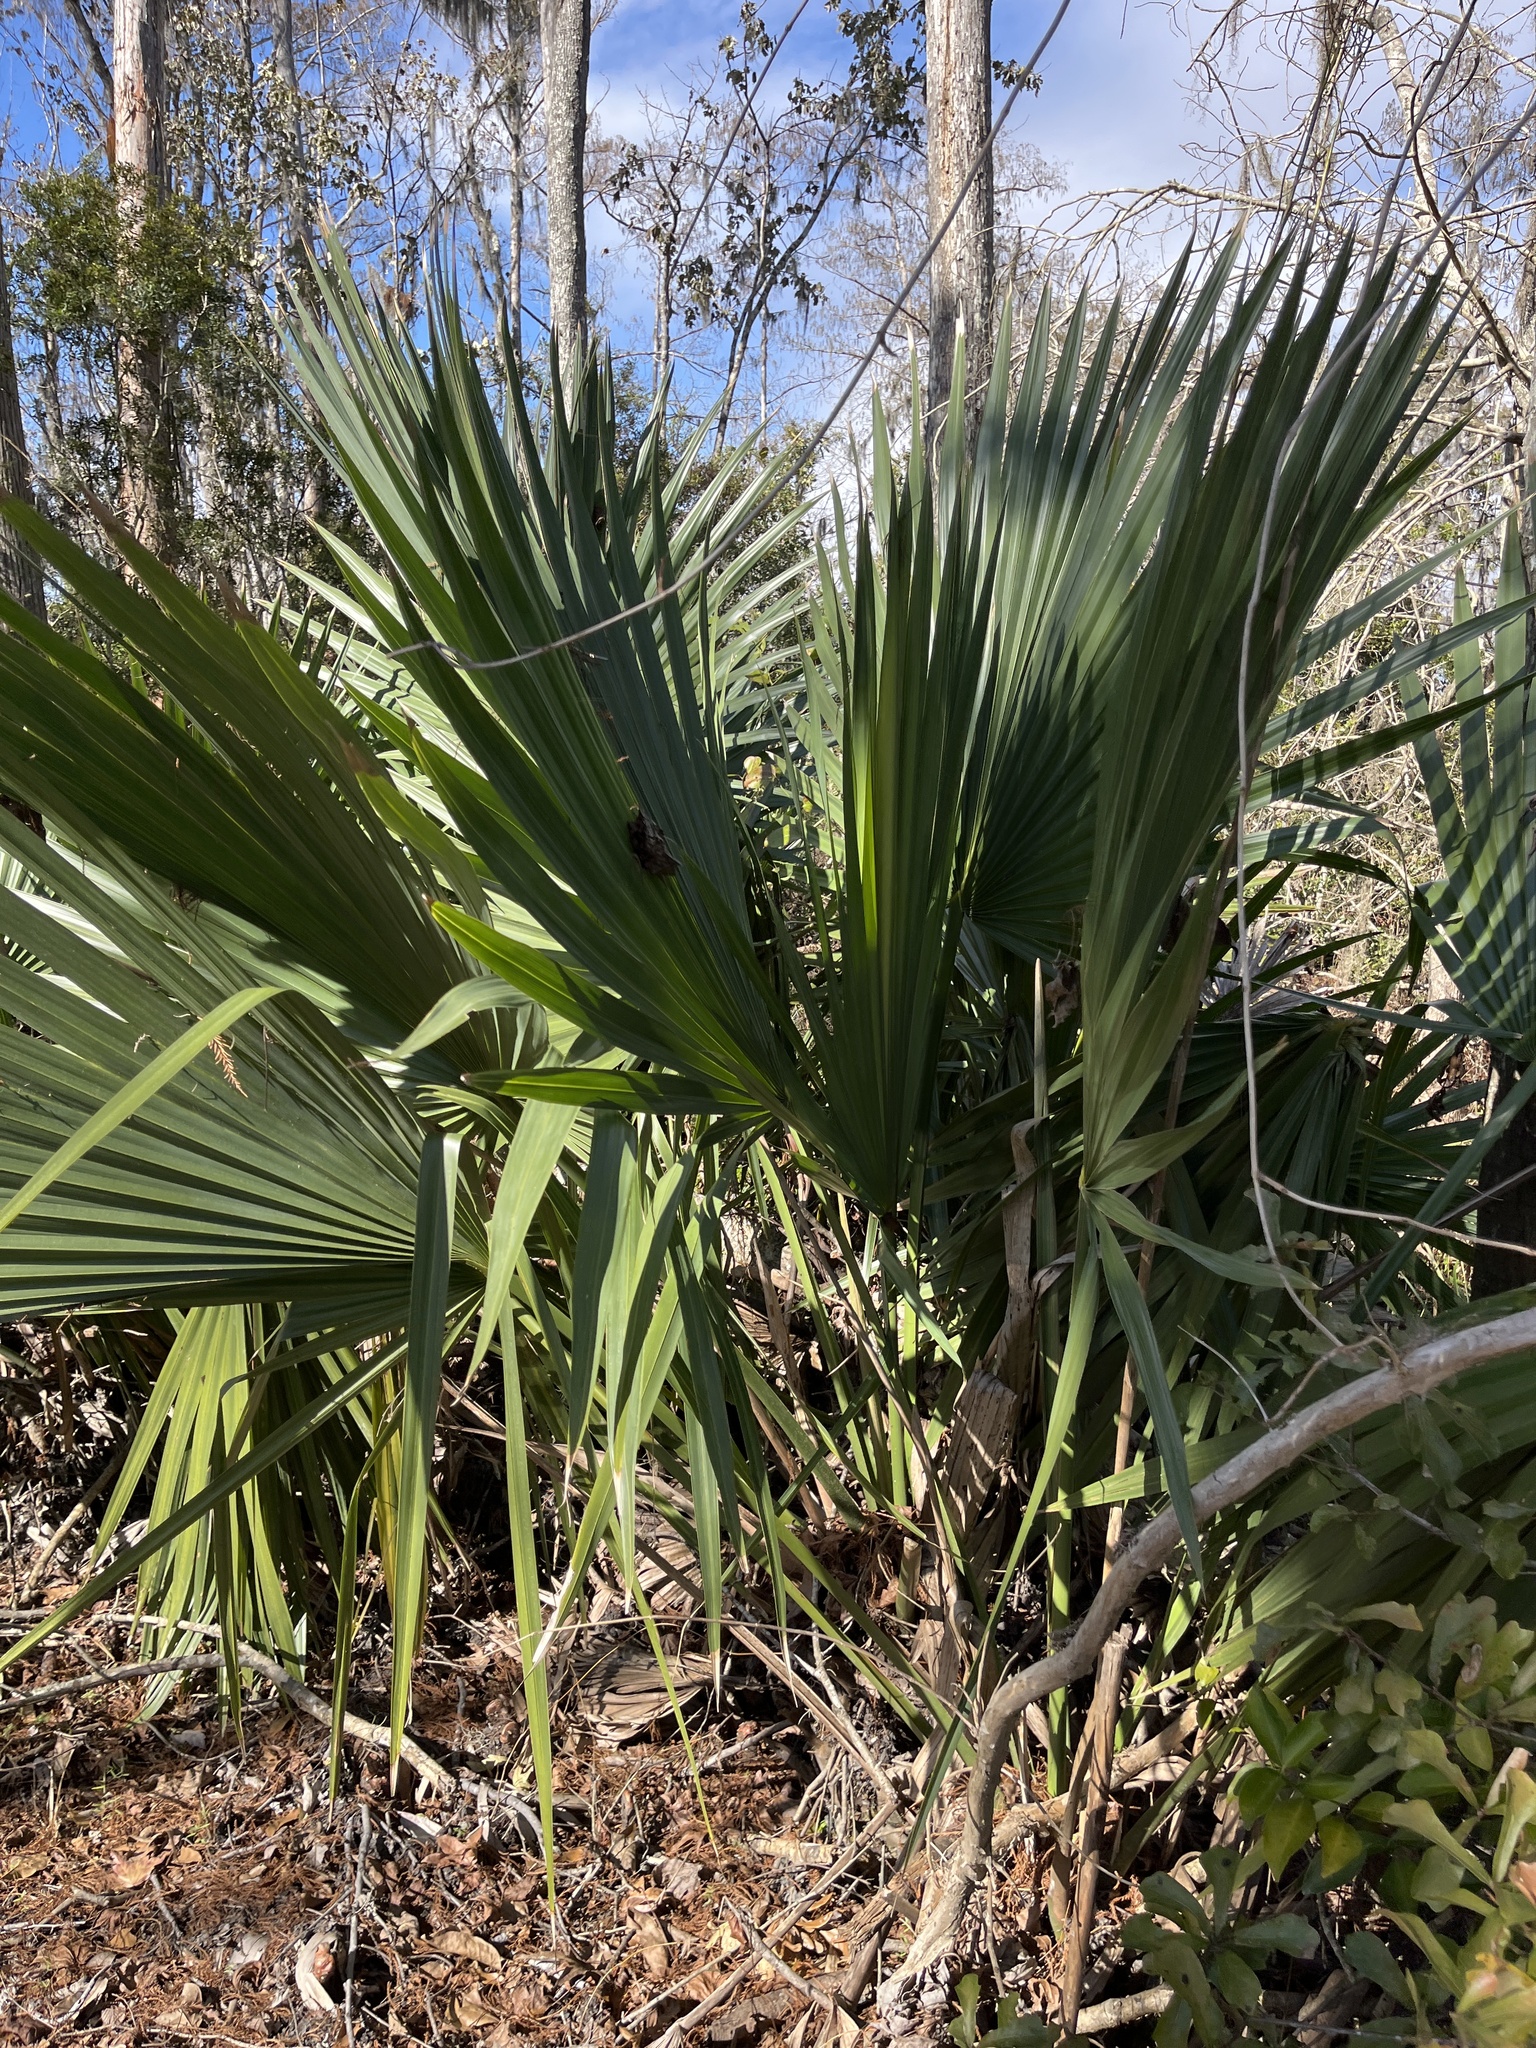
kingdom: Plantae
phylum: Tracheophyta
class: Liliopsida
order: Arecales
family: Arecaceae
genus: Sabal
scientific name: Sabal minor
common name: Dwarf palmetto
